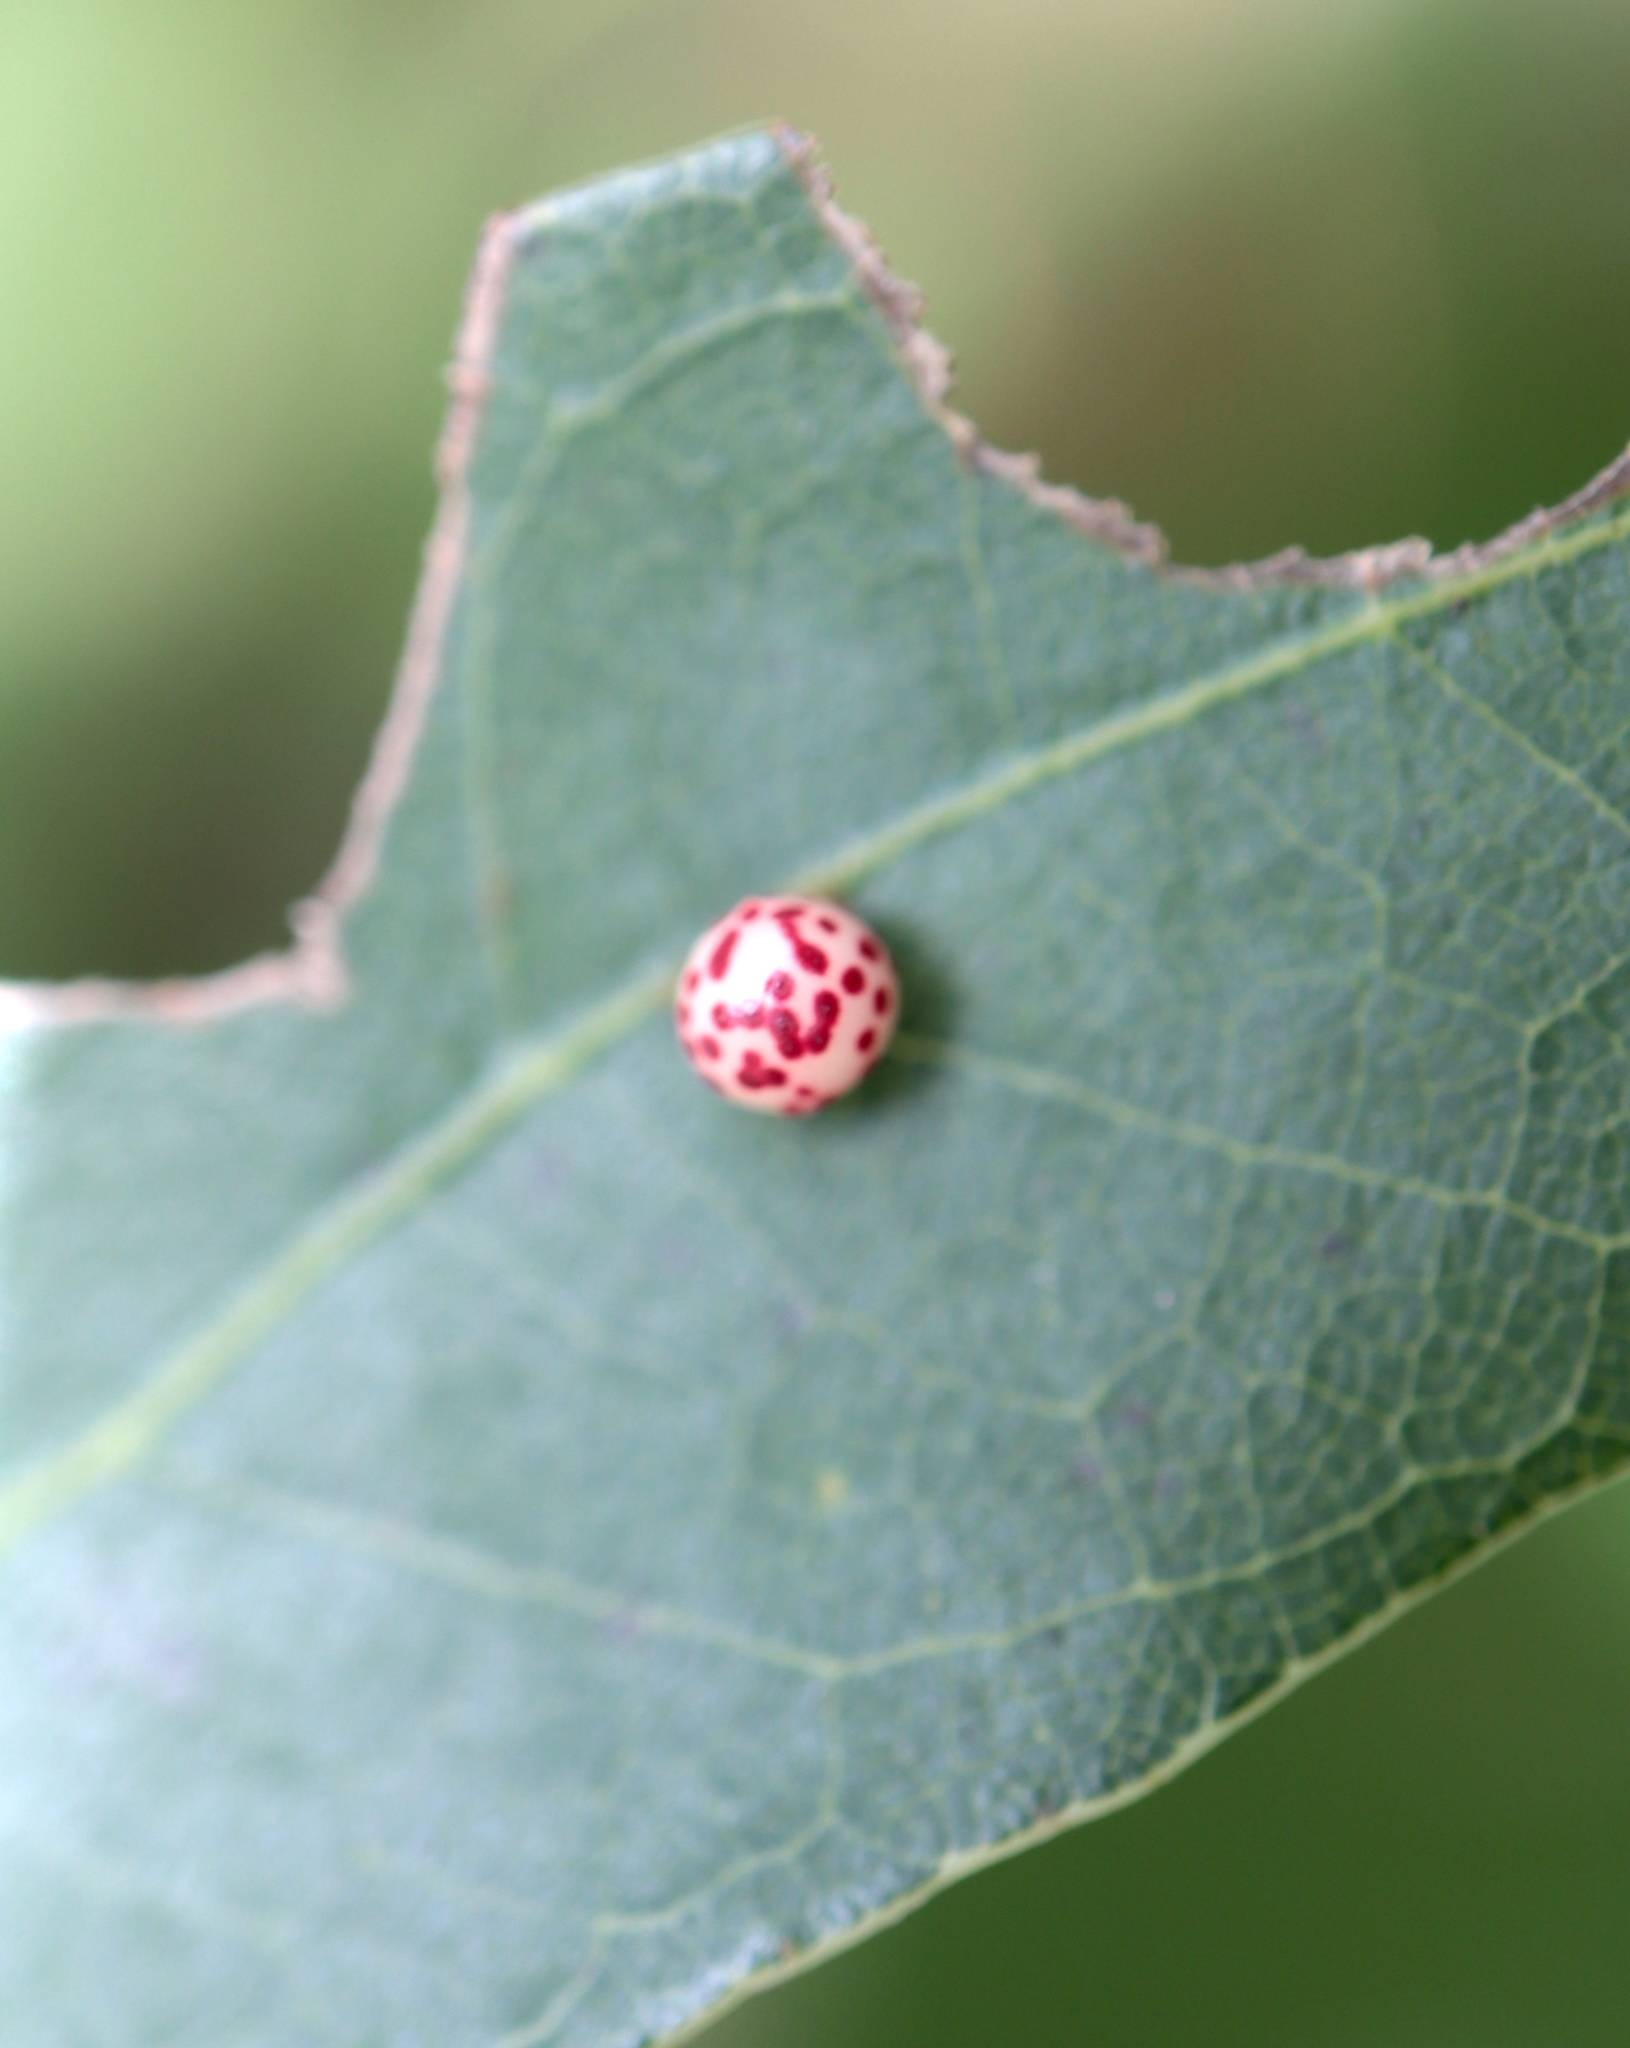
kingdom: Animalia
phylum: Arthropoda
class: Insecta
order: Hymenoptera
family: Cynipidae
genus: Zopheroteras
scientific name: Zopheroteras
